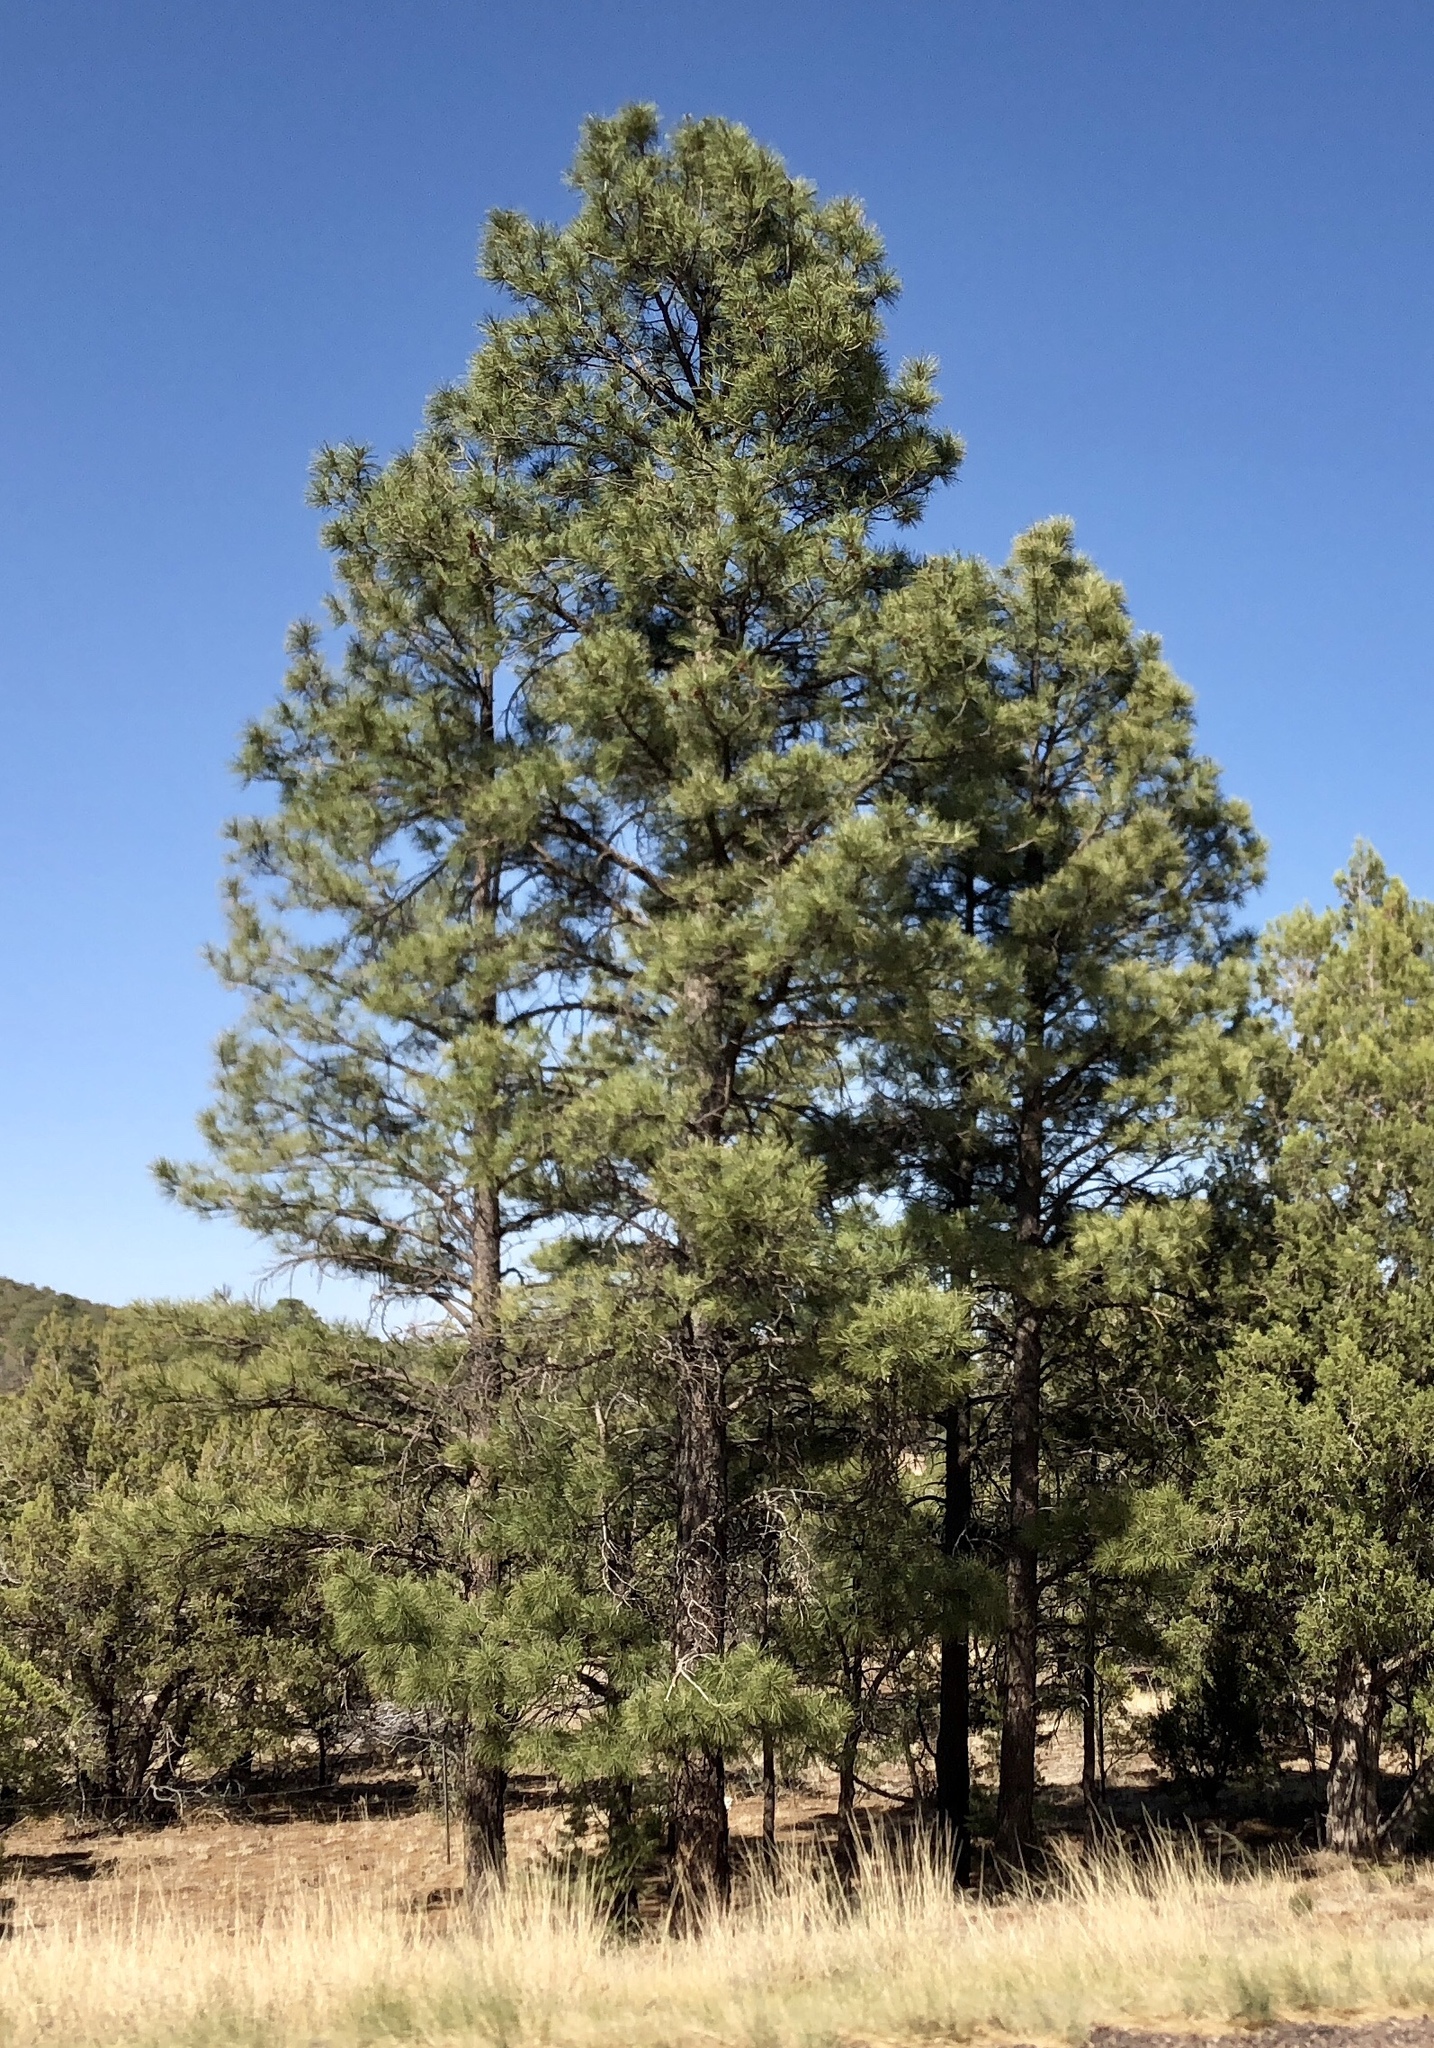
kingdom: Plantae
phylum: Tracheophyta
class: Pinopsida
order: Pinales
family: Pinaceae
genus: Pinus
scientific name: Pinus ponderosa
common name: Western yellow-pine
